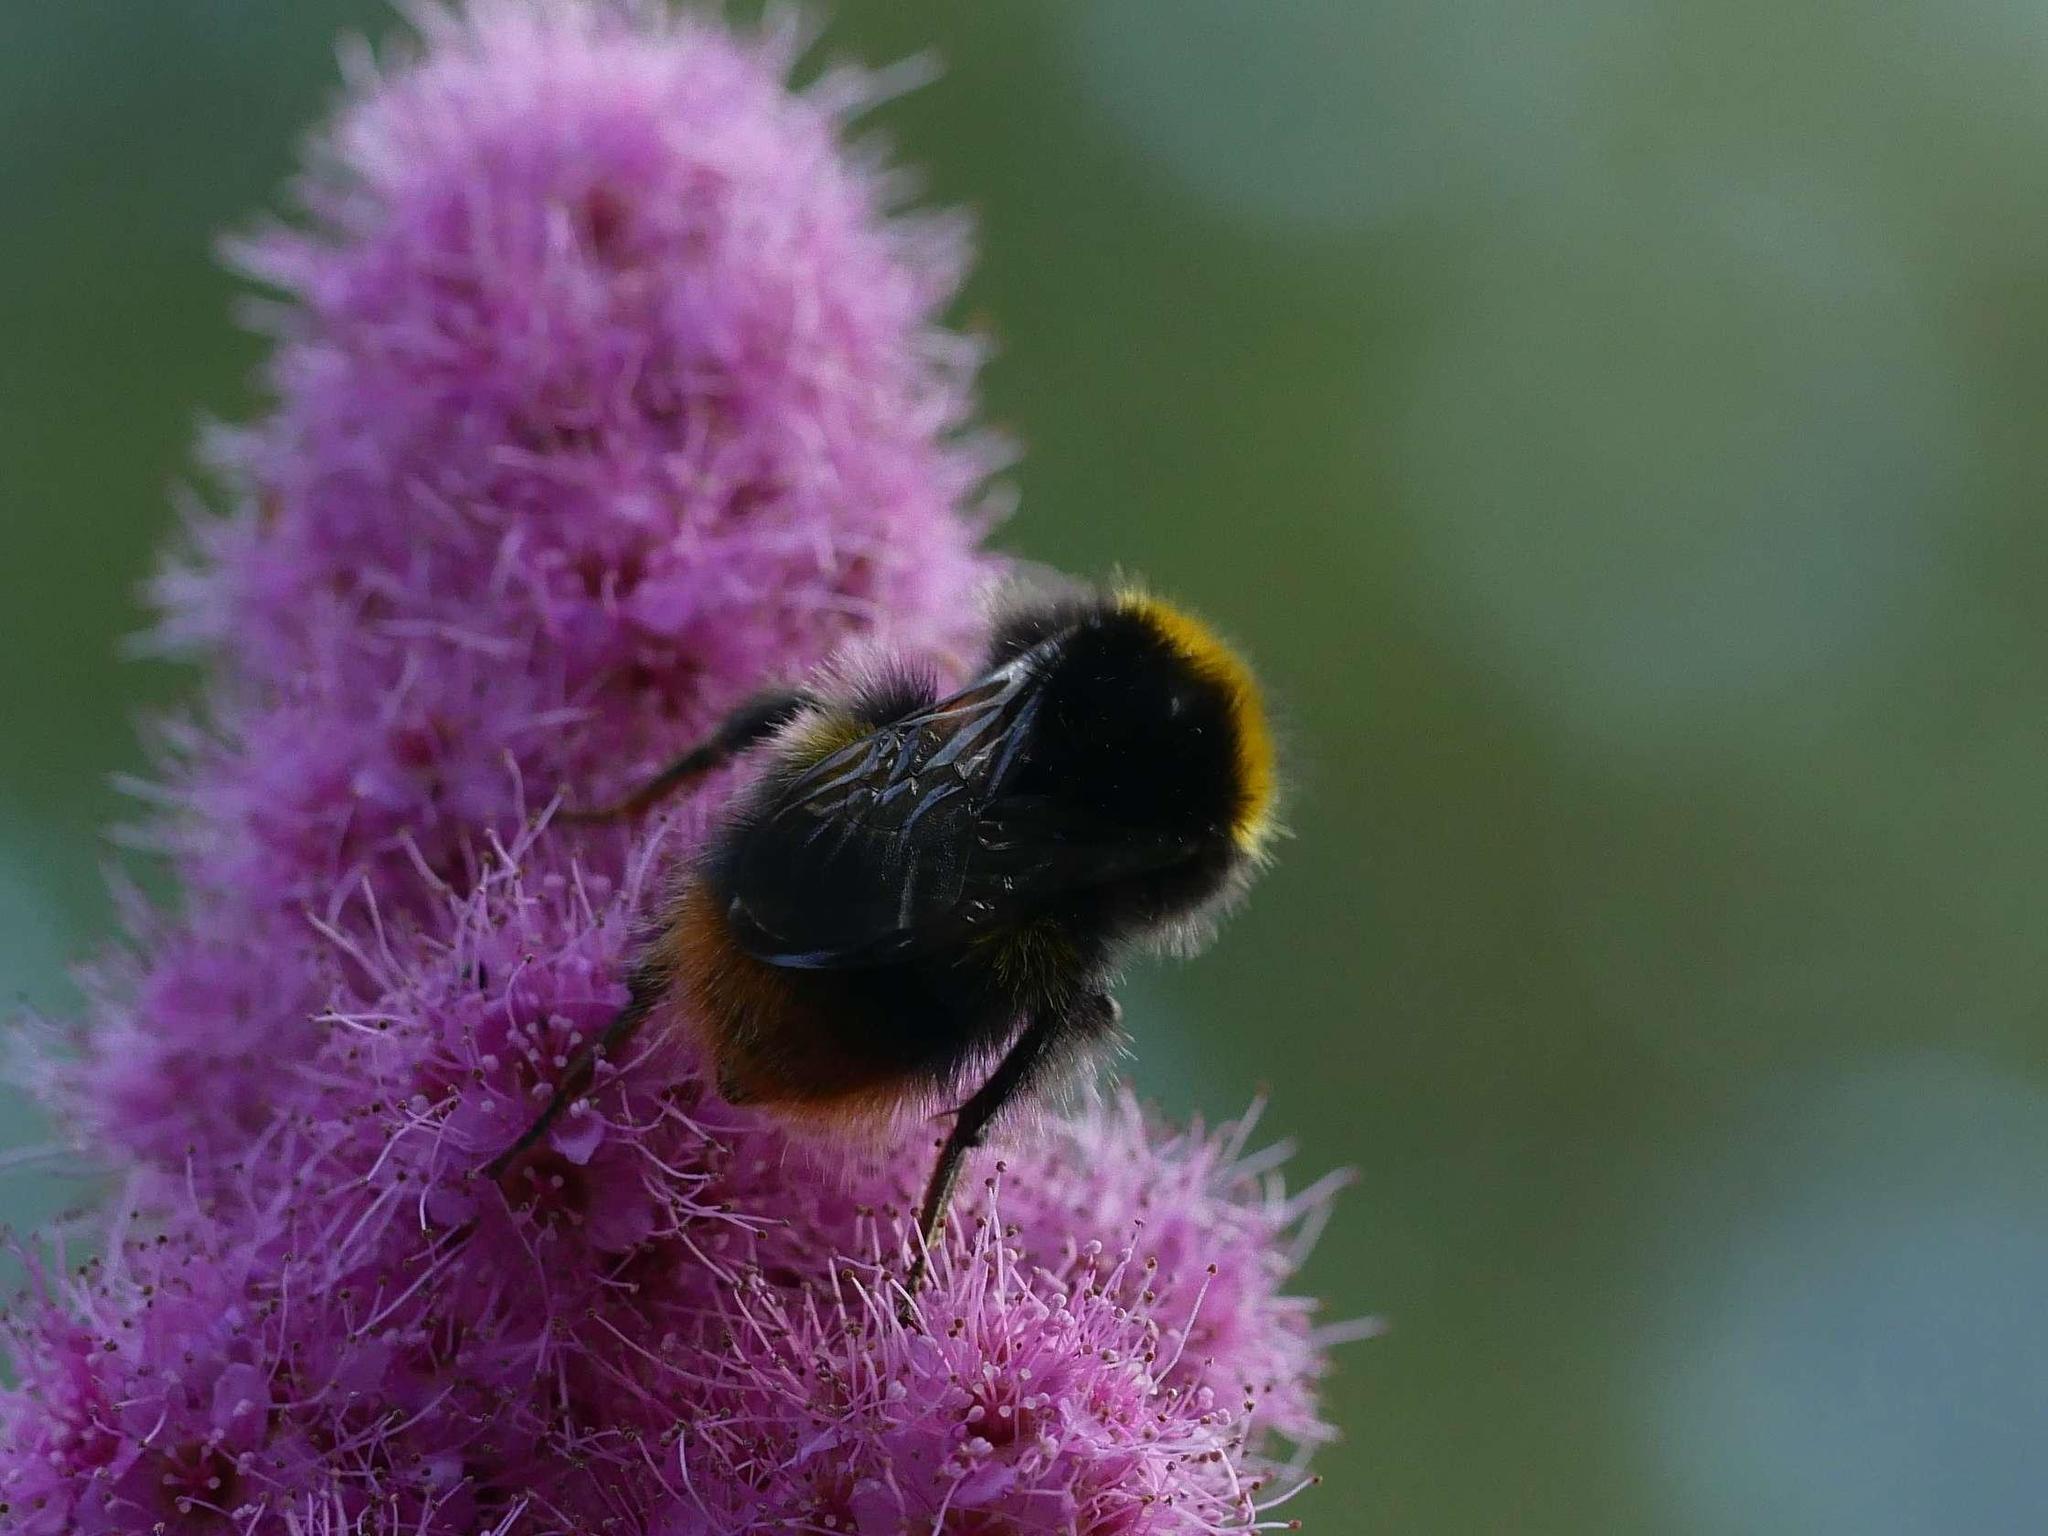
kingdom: Animalia
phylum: Arthropoda
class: Insecta
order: Hymenoptera
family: Apidae
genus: Bombus
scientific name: Bombus pratorum
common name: Early humble-bee
